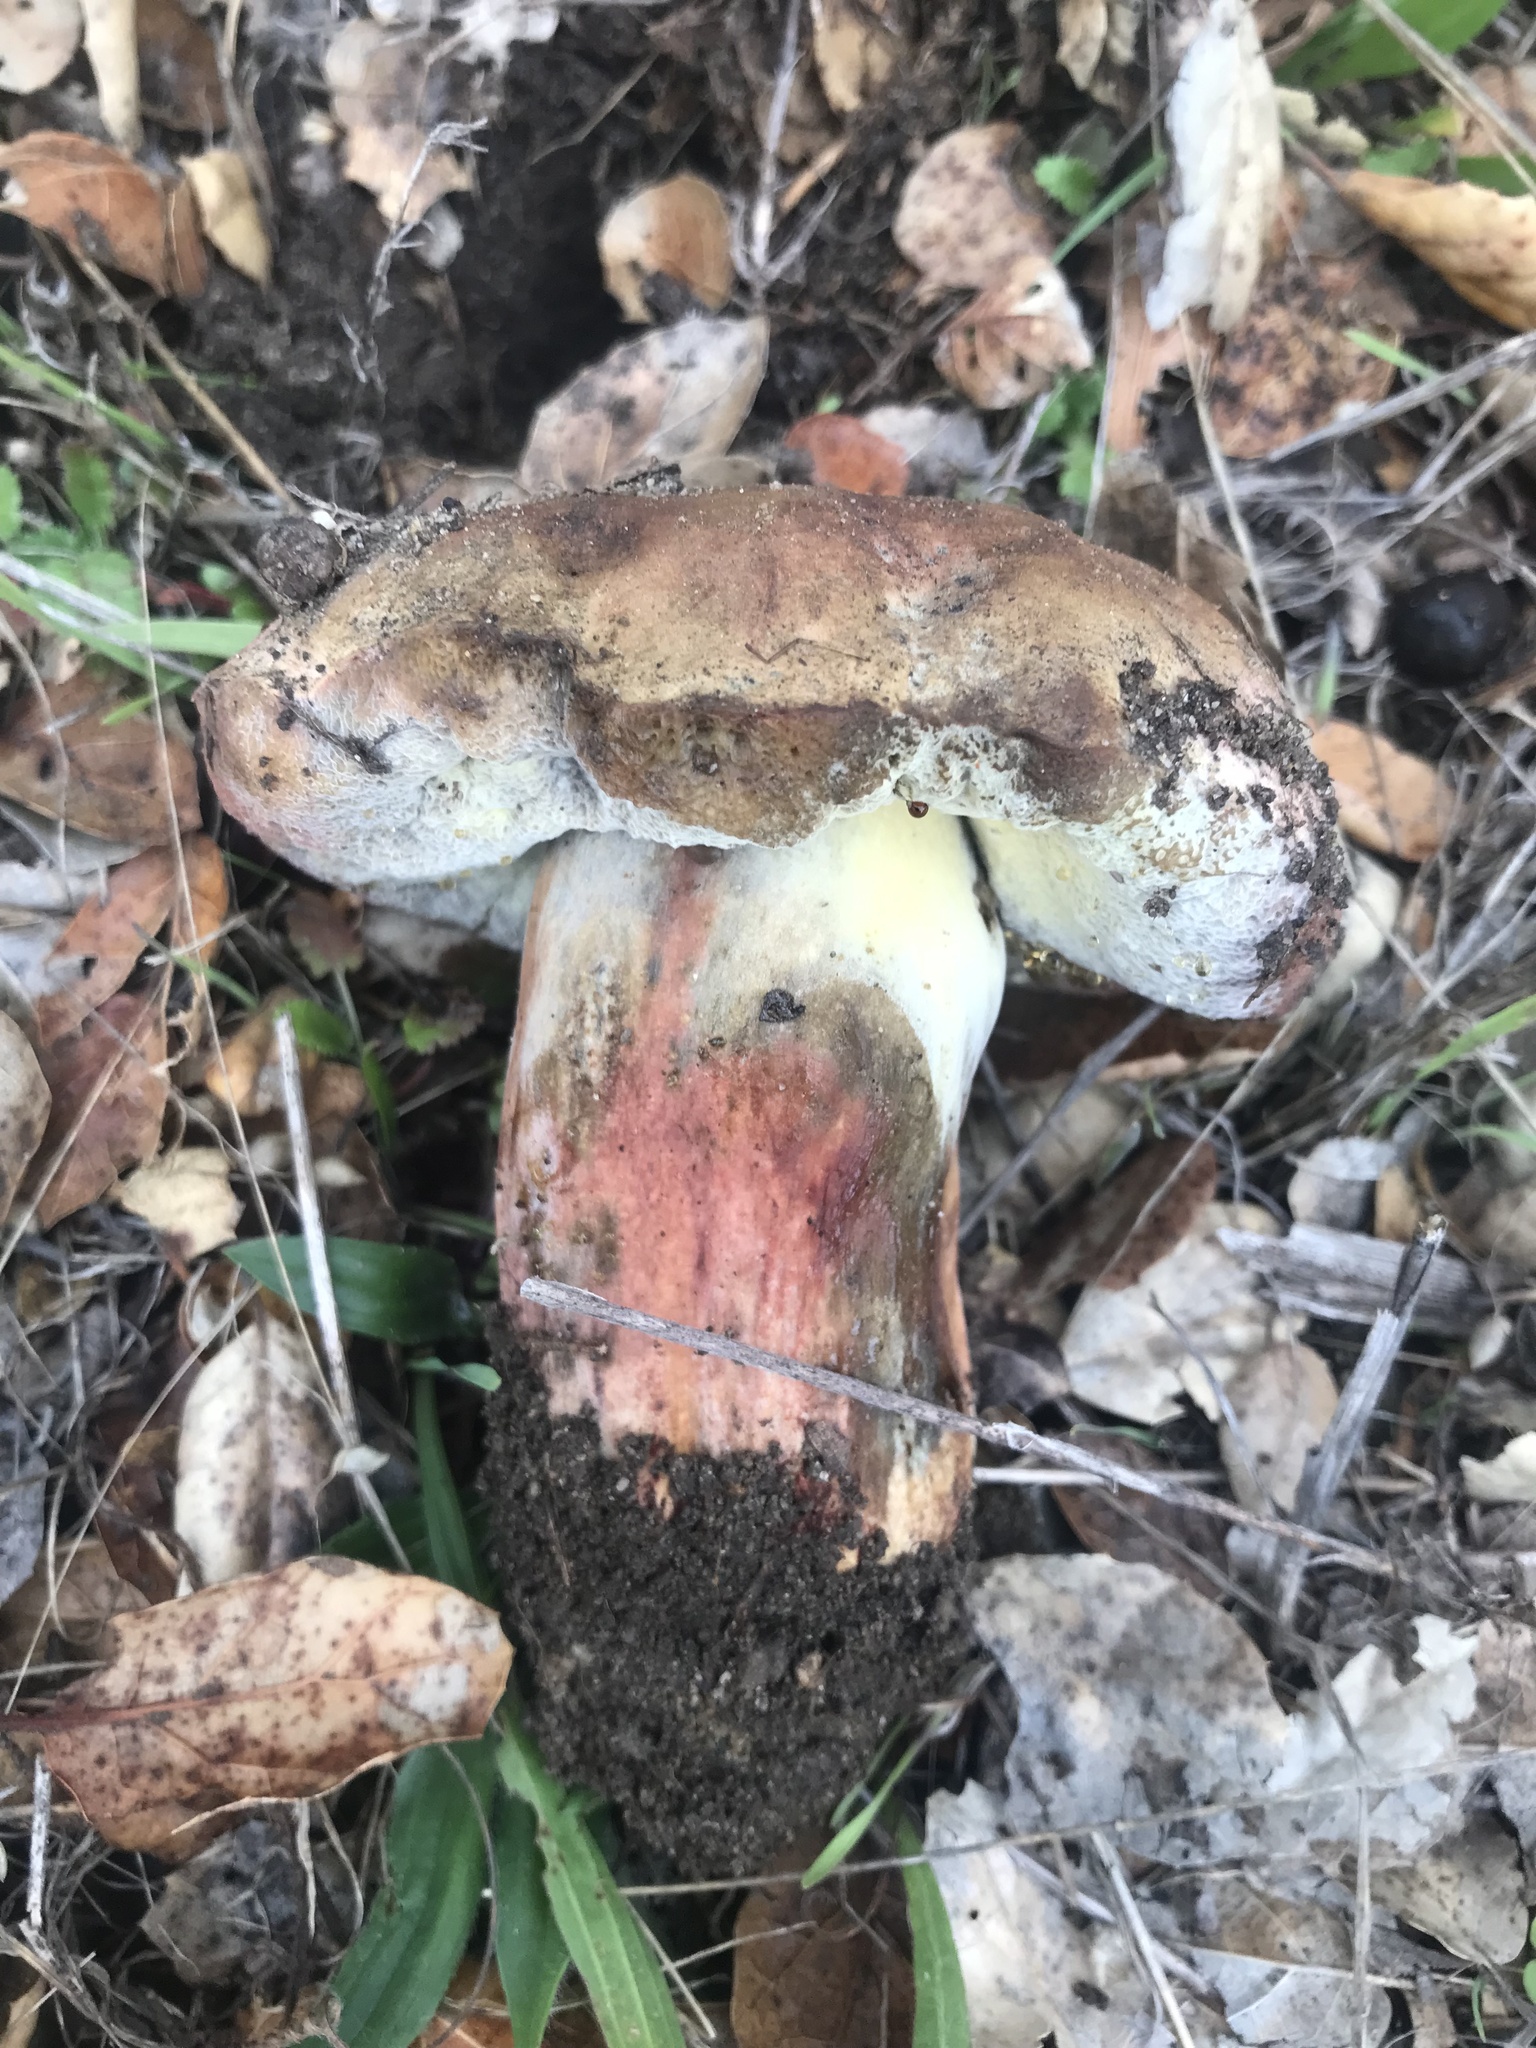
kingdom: Fungi
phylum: Basidiomycota
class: Agaricomycetes
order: Boletales
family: Boletaceae
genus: Suillellus
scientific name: Suillellus amygdalinus
